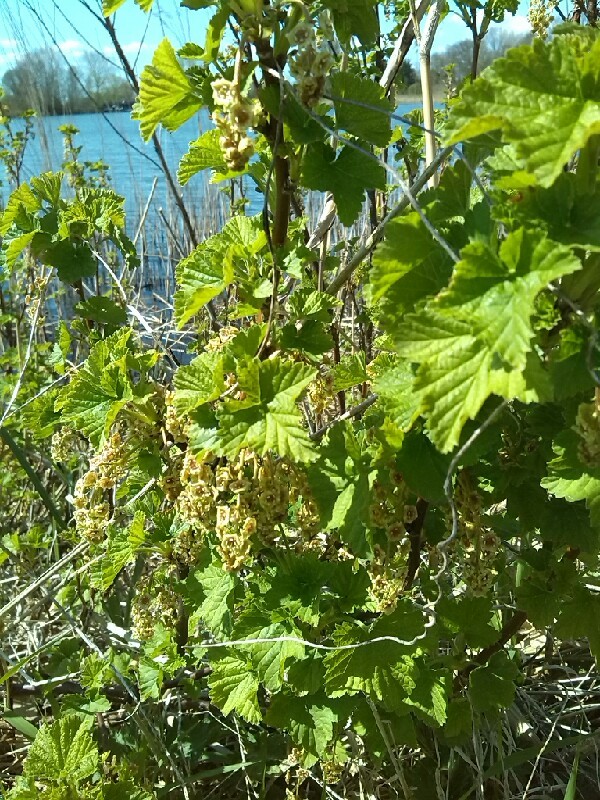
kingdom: Plantae
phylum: Tracheophyta
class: Magnoliopsida
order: Saxifragales
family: Grossulariaceae
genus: Ribes
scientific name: Ribes rubrum
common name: Red currant
